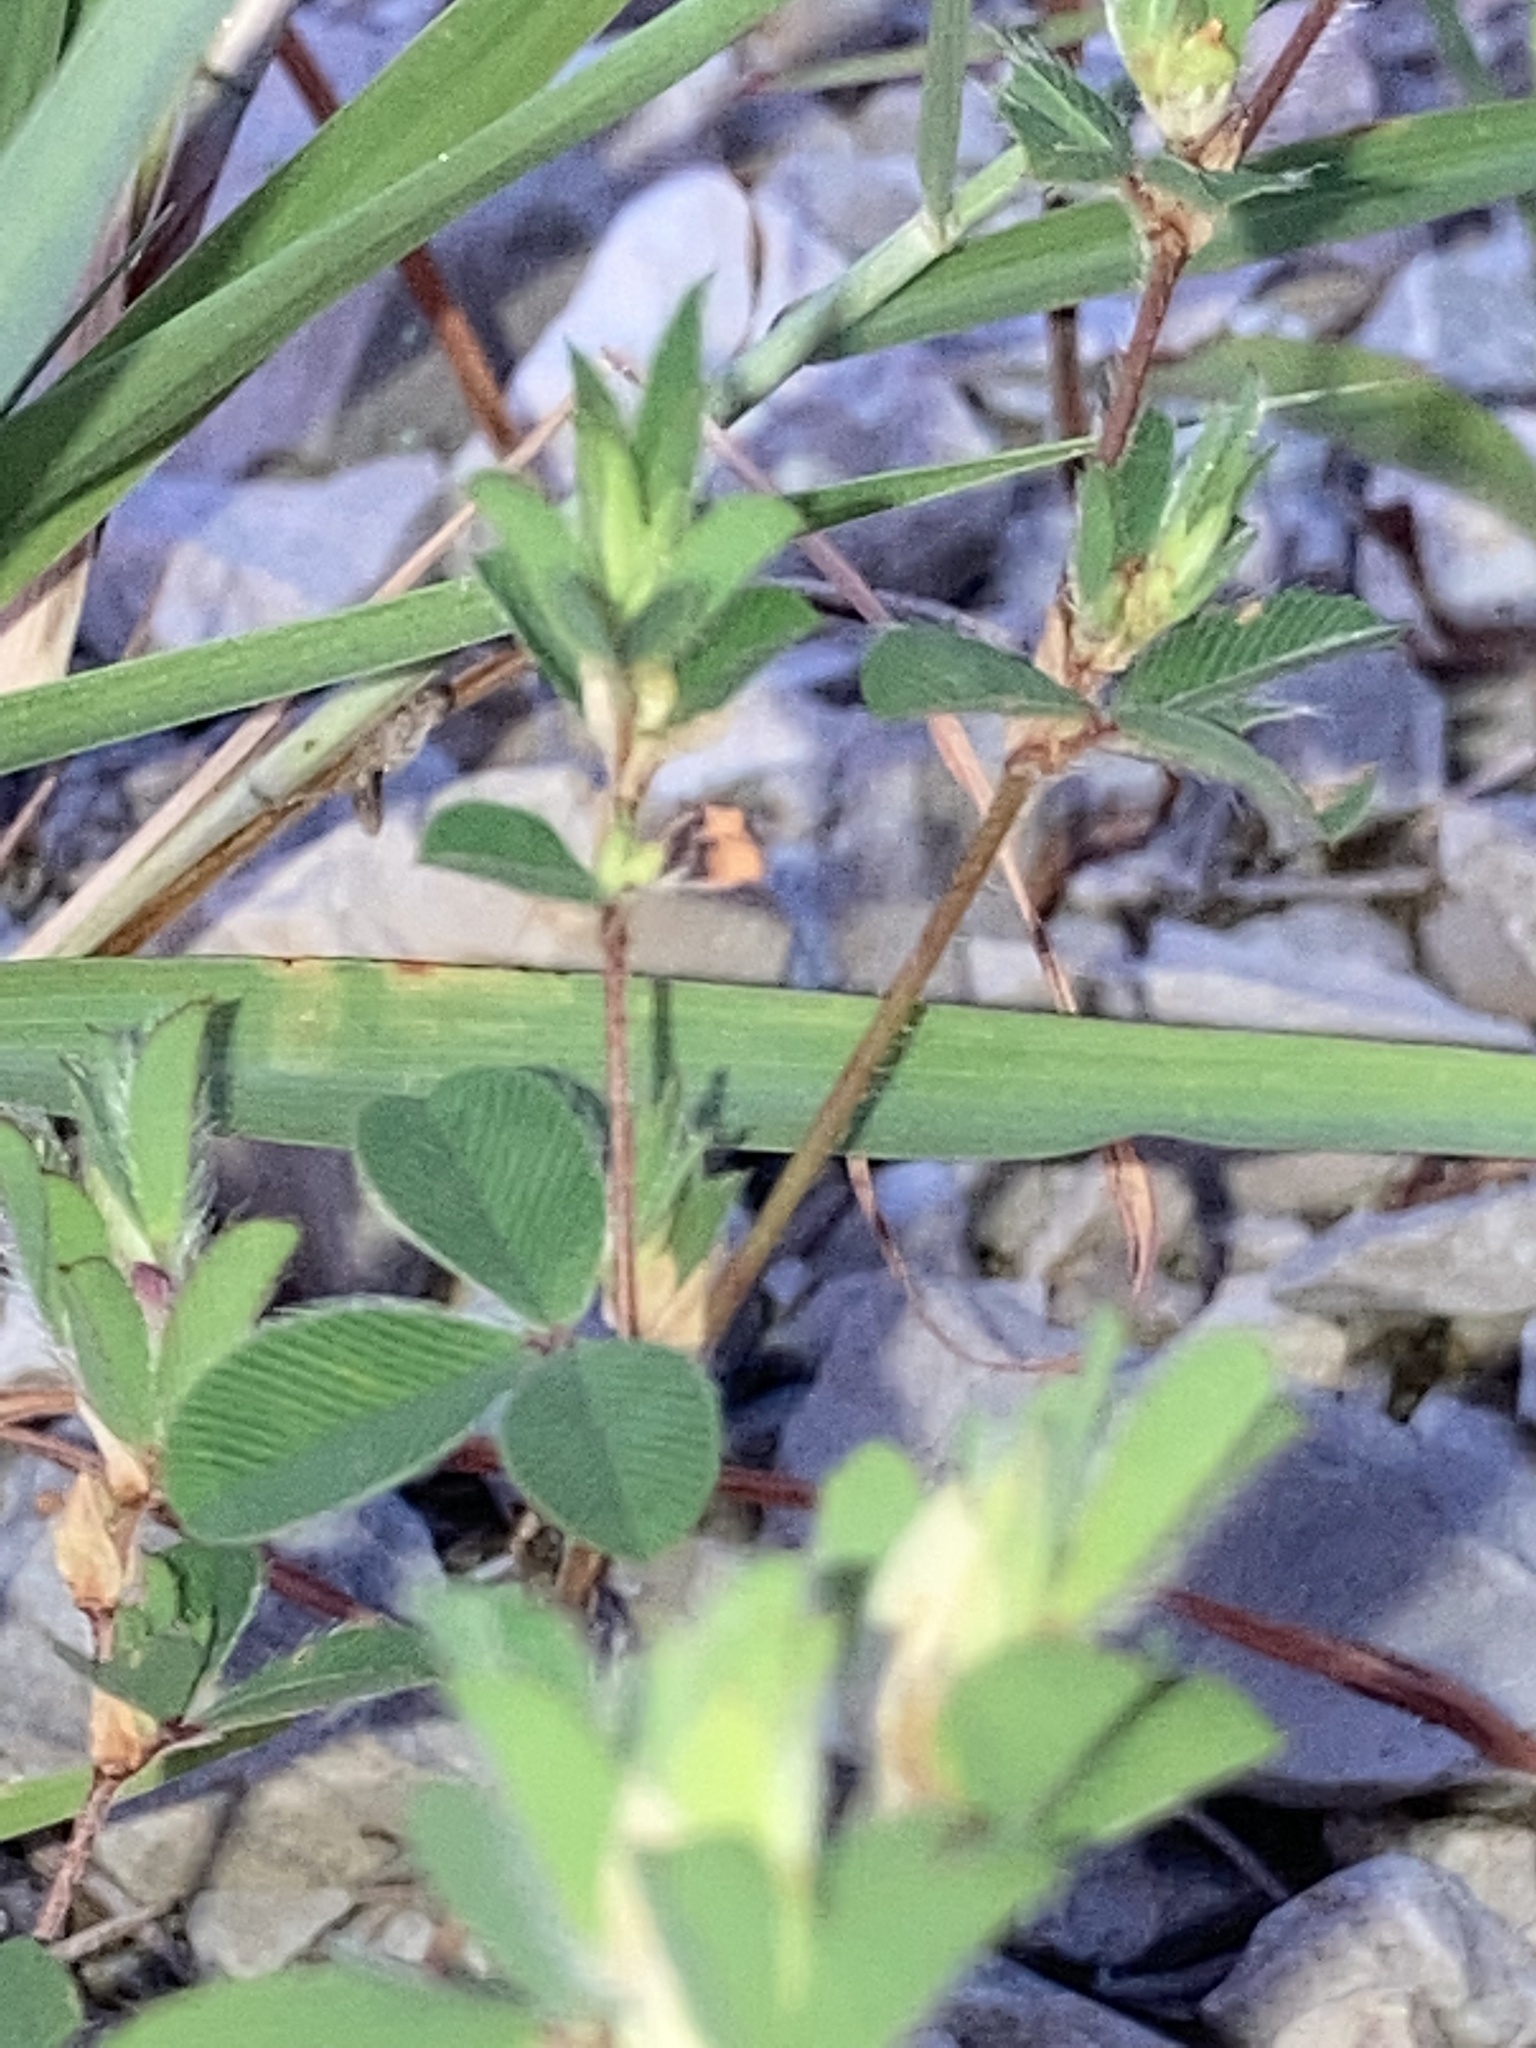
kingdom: Plantae
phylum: Tracheophyta
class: Magnoliopsida
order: Fabales
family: Fabaceae
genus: Kummerowia
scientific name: Kummerowia stipulacea
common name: Korean clover
